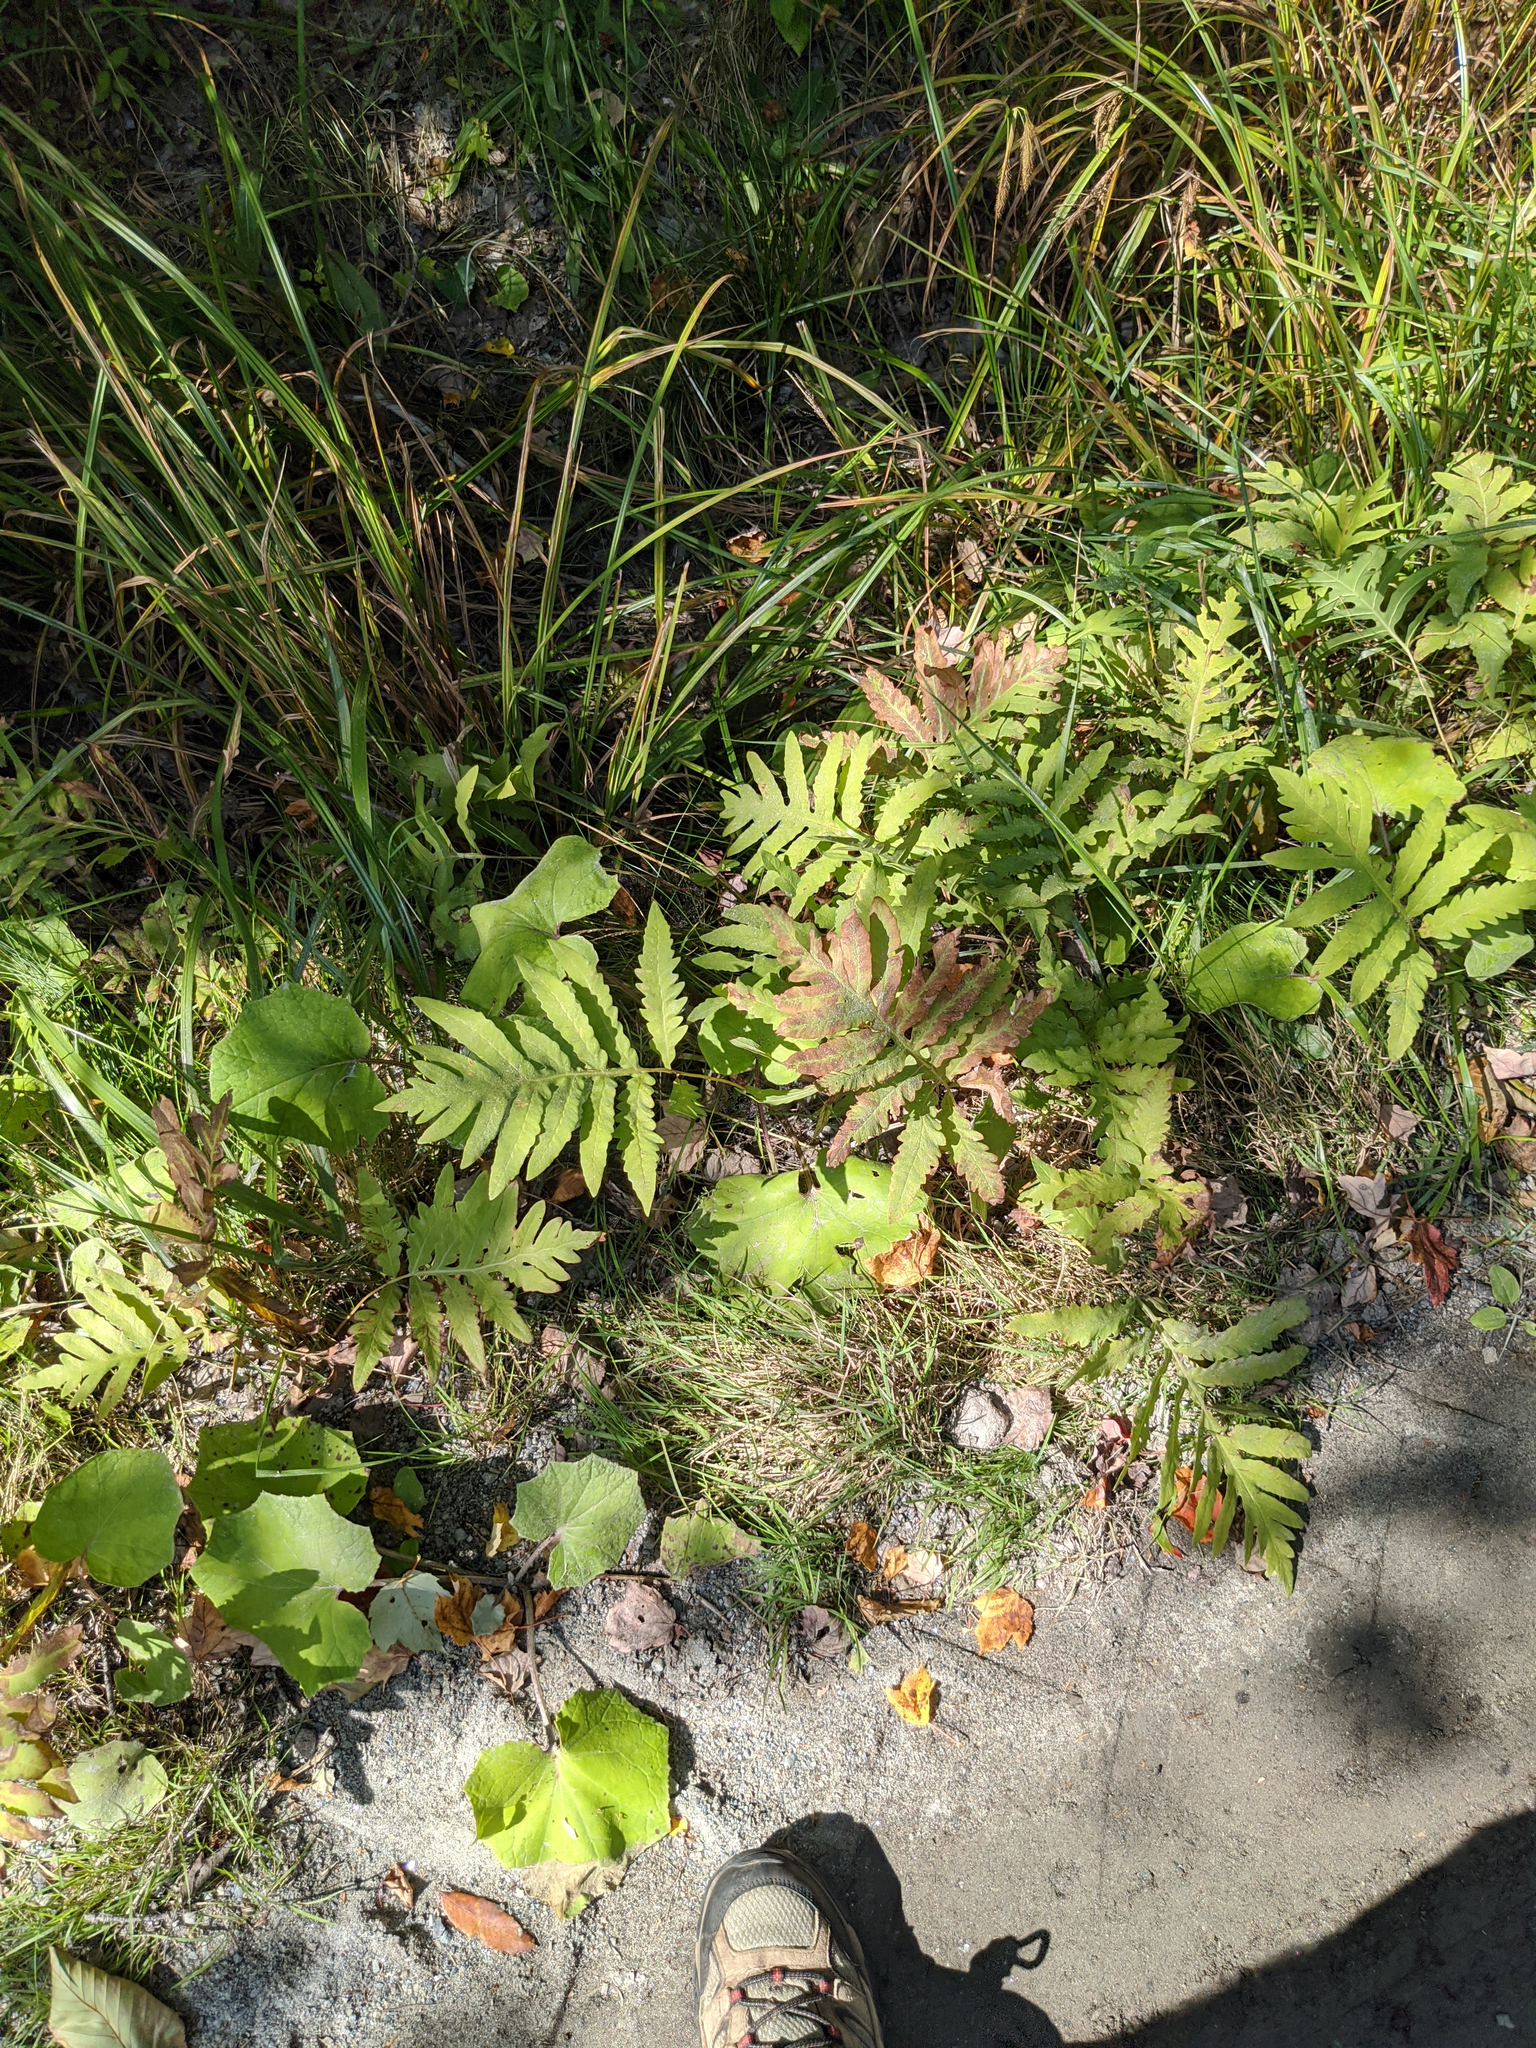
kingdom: Plantae
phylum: Tracheophyta
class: Polypodiopsida
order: Polypodiales
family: Onocleaceae
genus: Onoclea
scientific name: Onoclea sensibilis
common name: Sensitive fern
